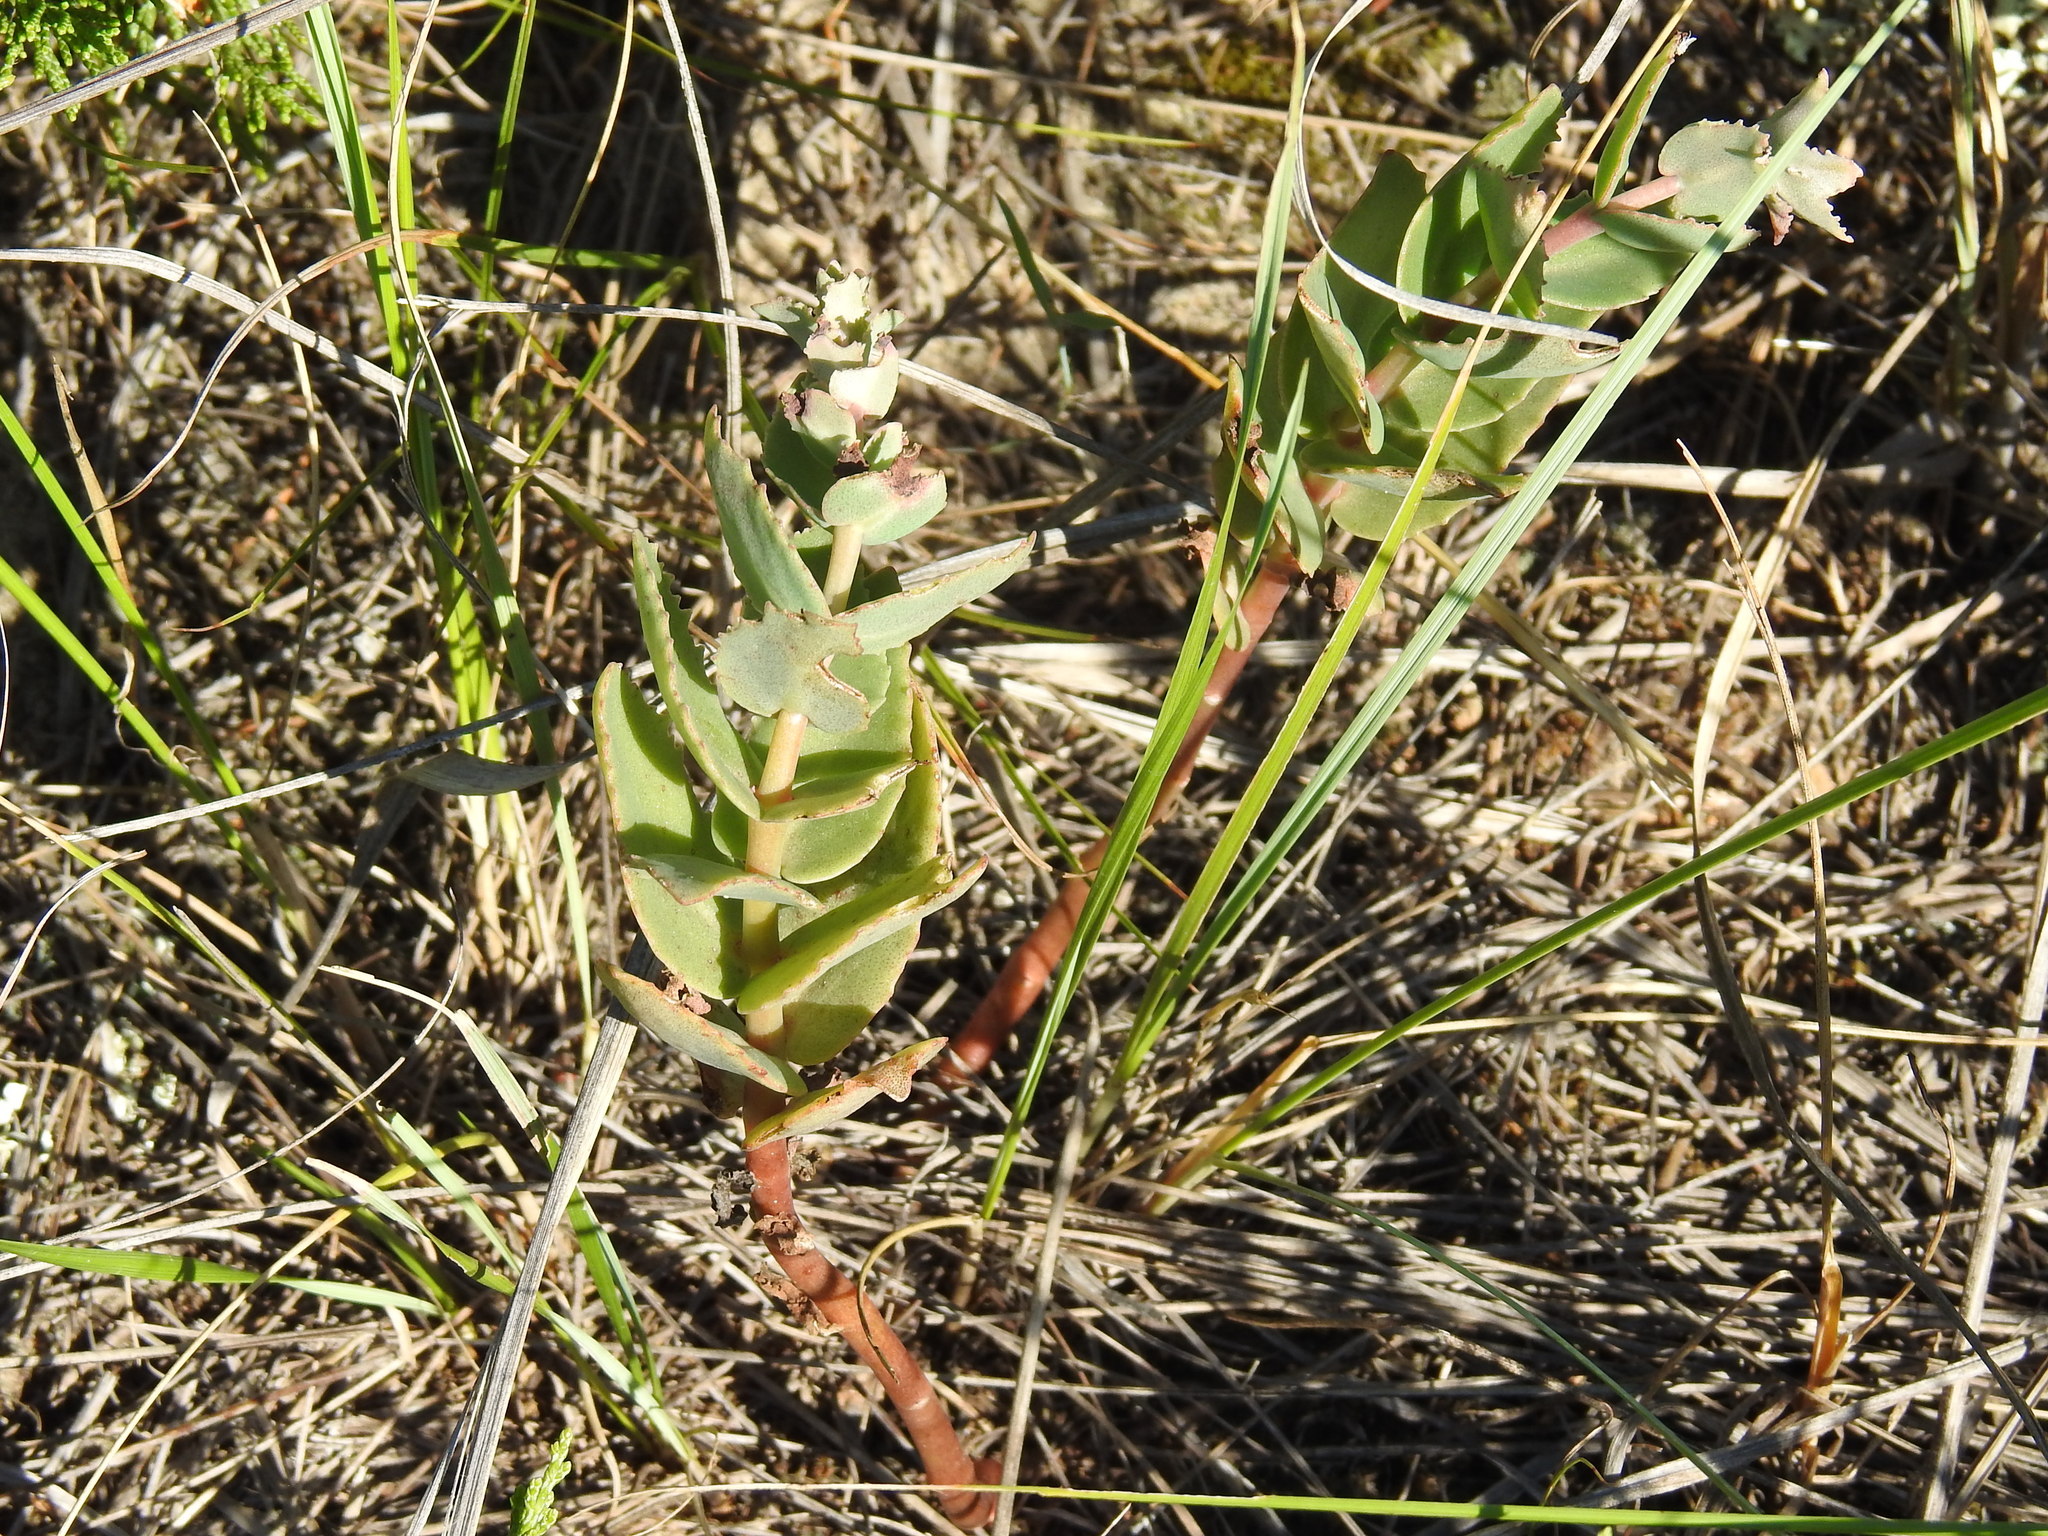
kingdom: Plantae
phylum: Tracheophyta
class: Magnoliopsida
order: Saxifragales
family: Crassulaceae
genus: Hylotelephium
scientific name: Hylotelephium maximum
